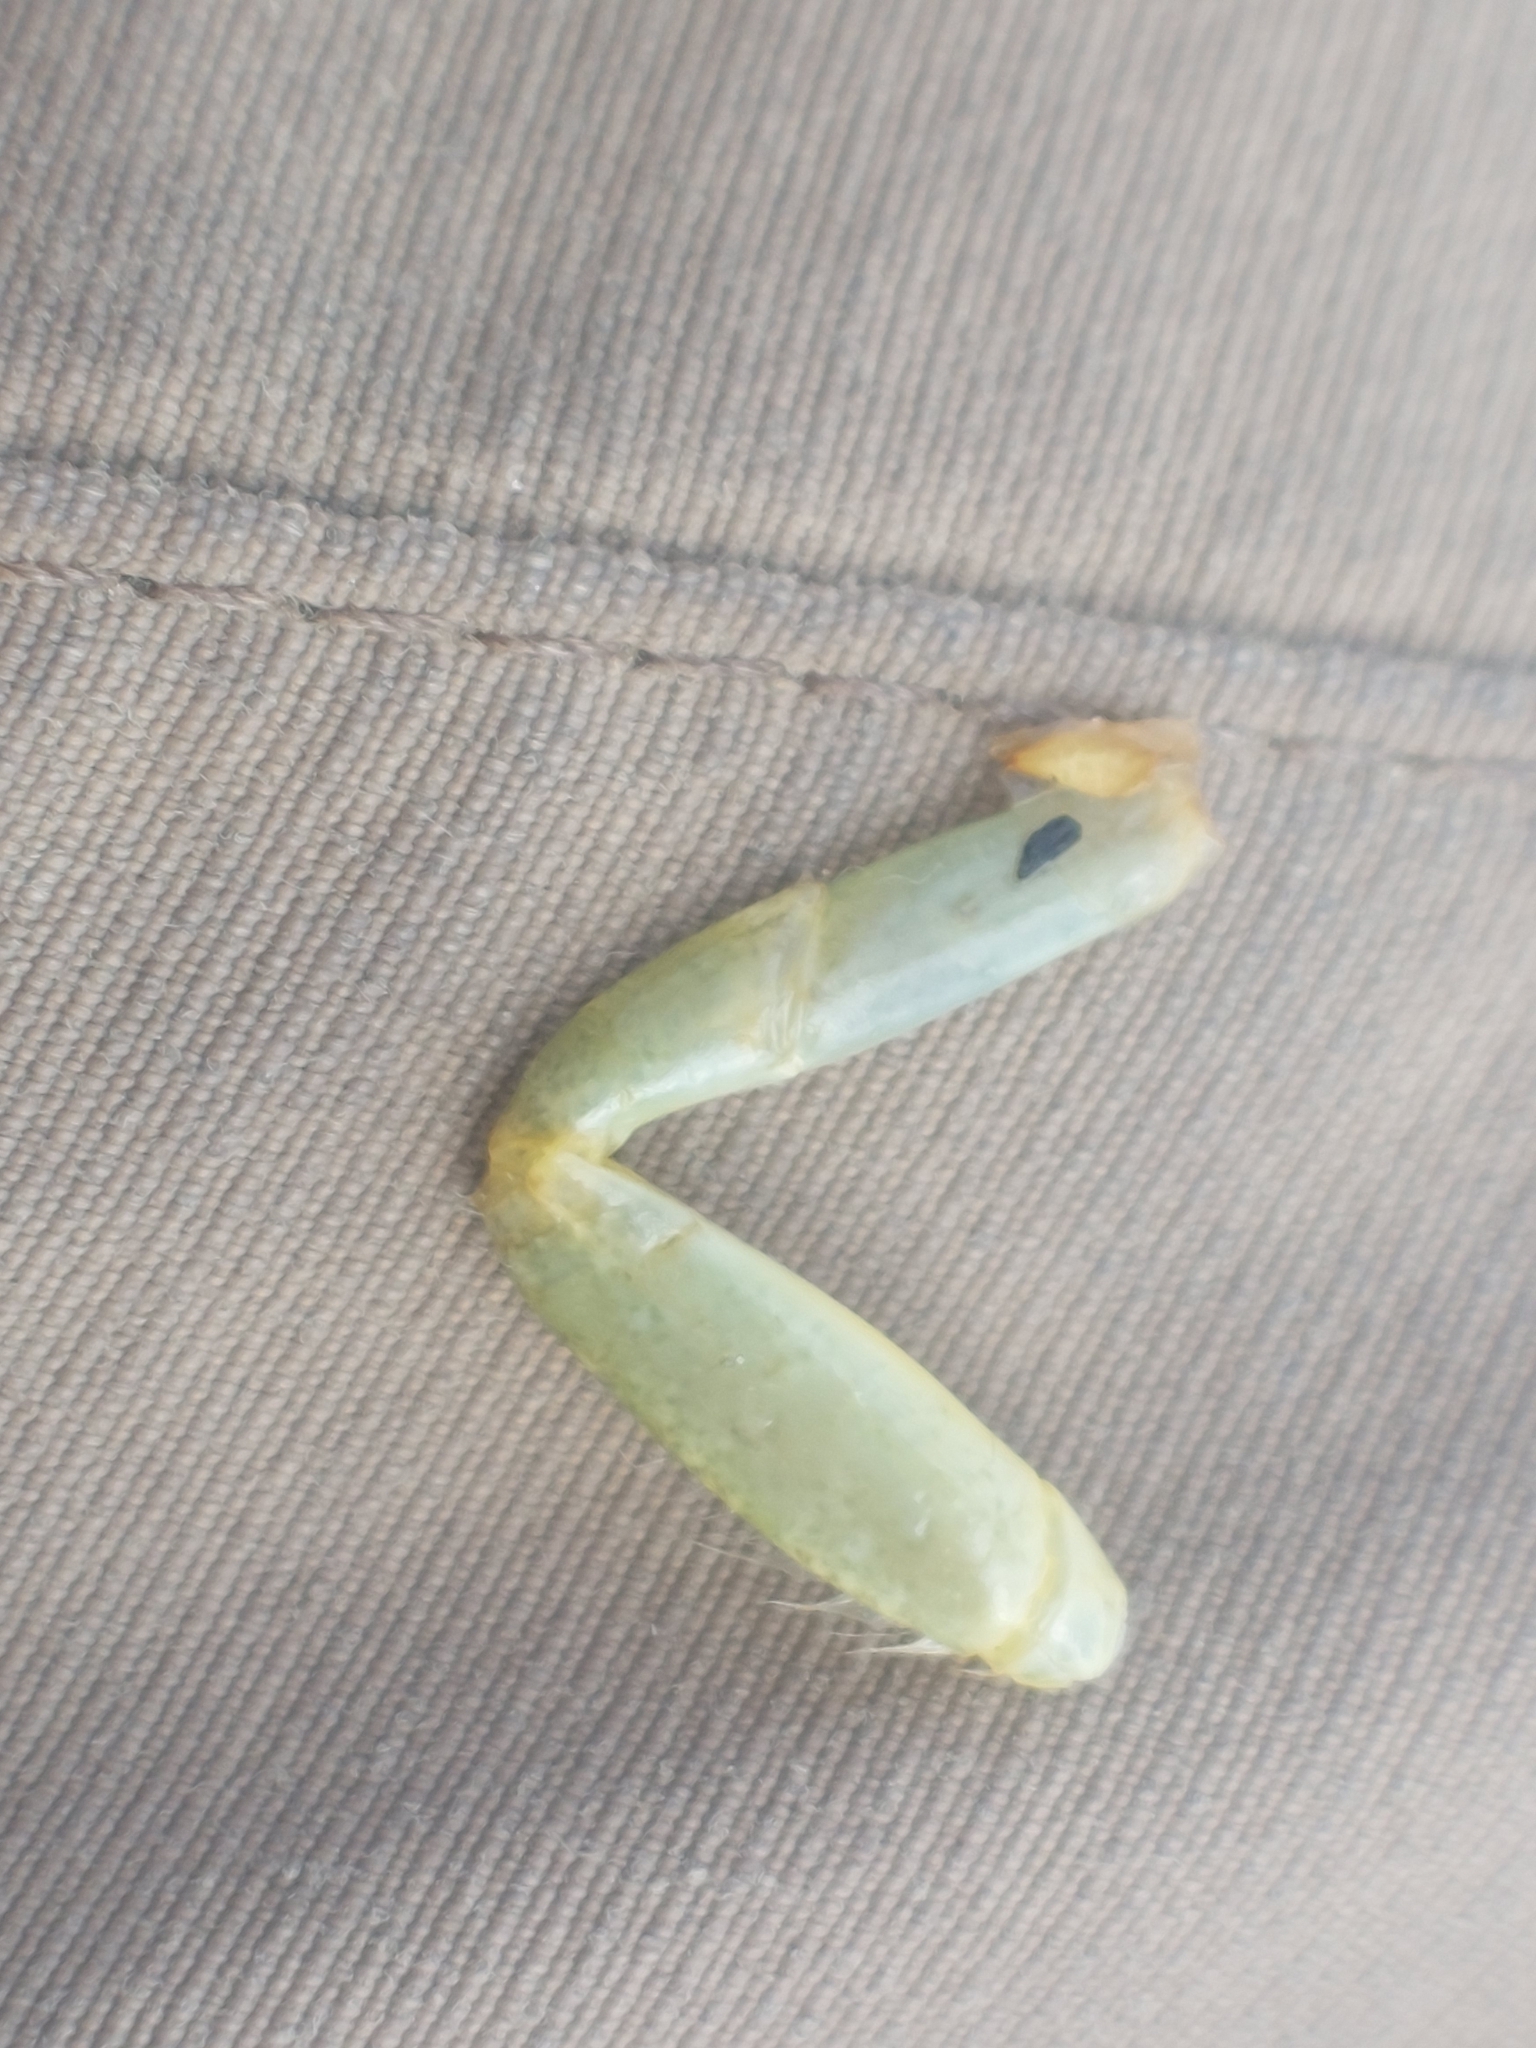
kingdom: Animalia
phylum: Arthropoda
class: Malacostraca
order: Decapoda
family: Carcinidae
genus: Carcinus
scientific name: Carcinus maenas
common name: European green crab
